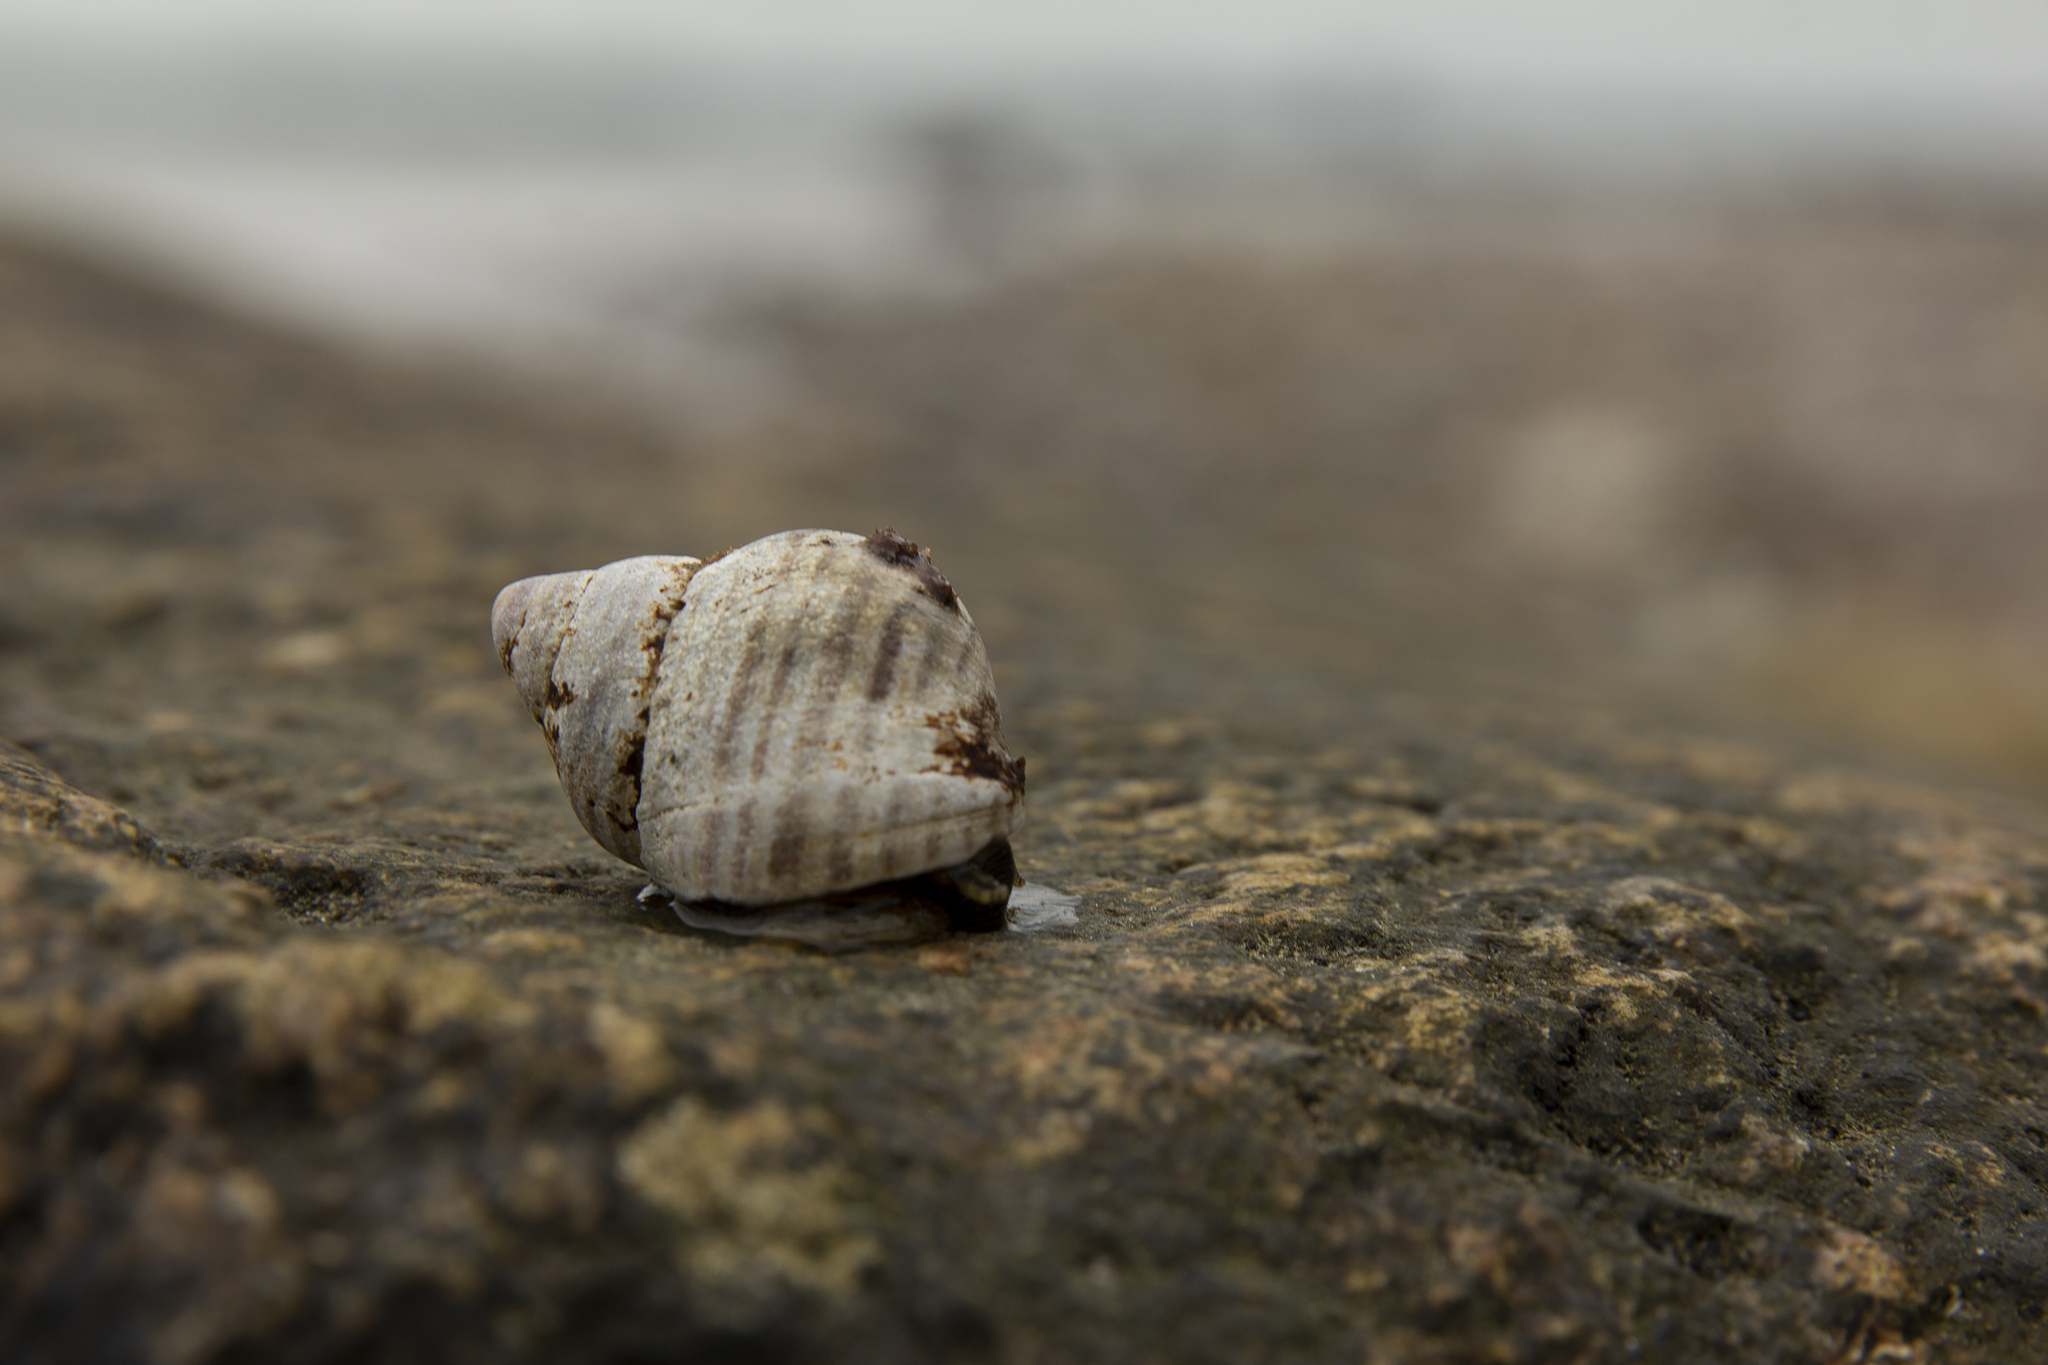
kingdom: Animalia
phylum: Mollusca
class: Gastropoda
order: Littorinimorpha
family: Littorinidae
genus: Littorina
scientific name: Littorina littorea
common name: Common periwinkle
